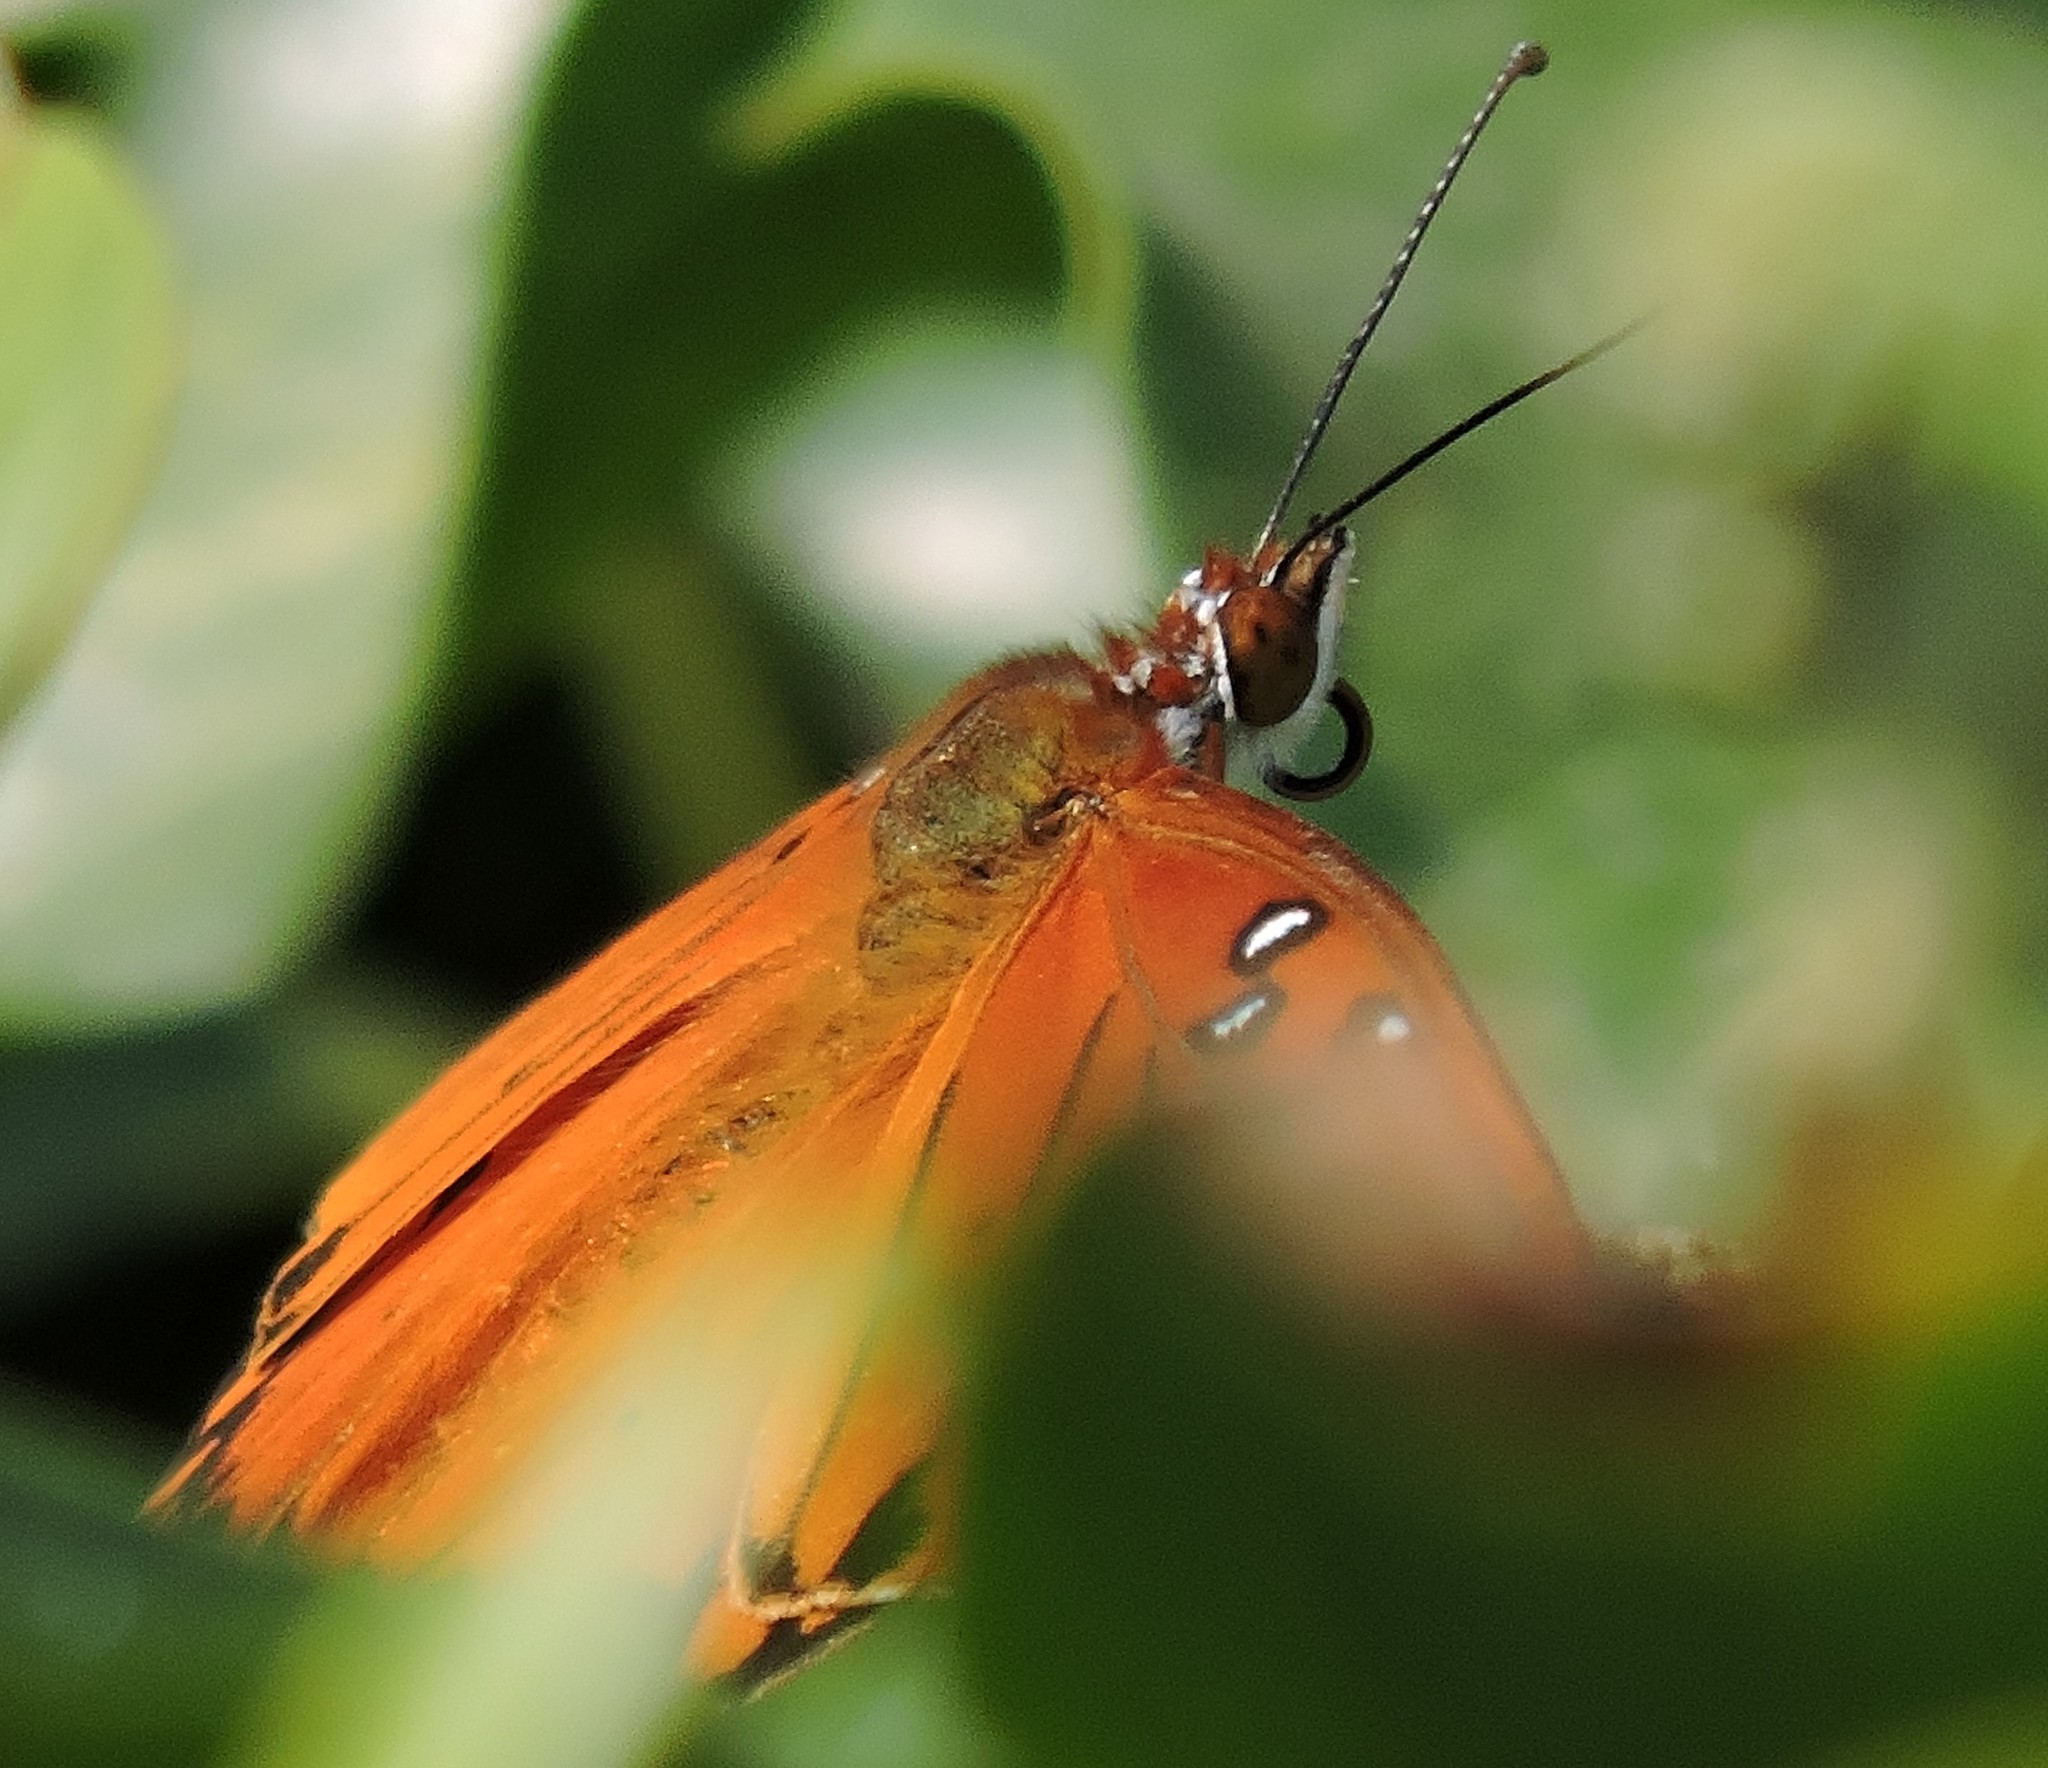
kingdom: Animalia
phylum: Arthropoda
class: Insecta
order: Lepidoptera
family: Nymphalidae
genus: Dione
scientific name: Dione vanillae
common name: Gulf fritillary
